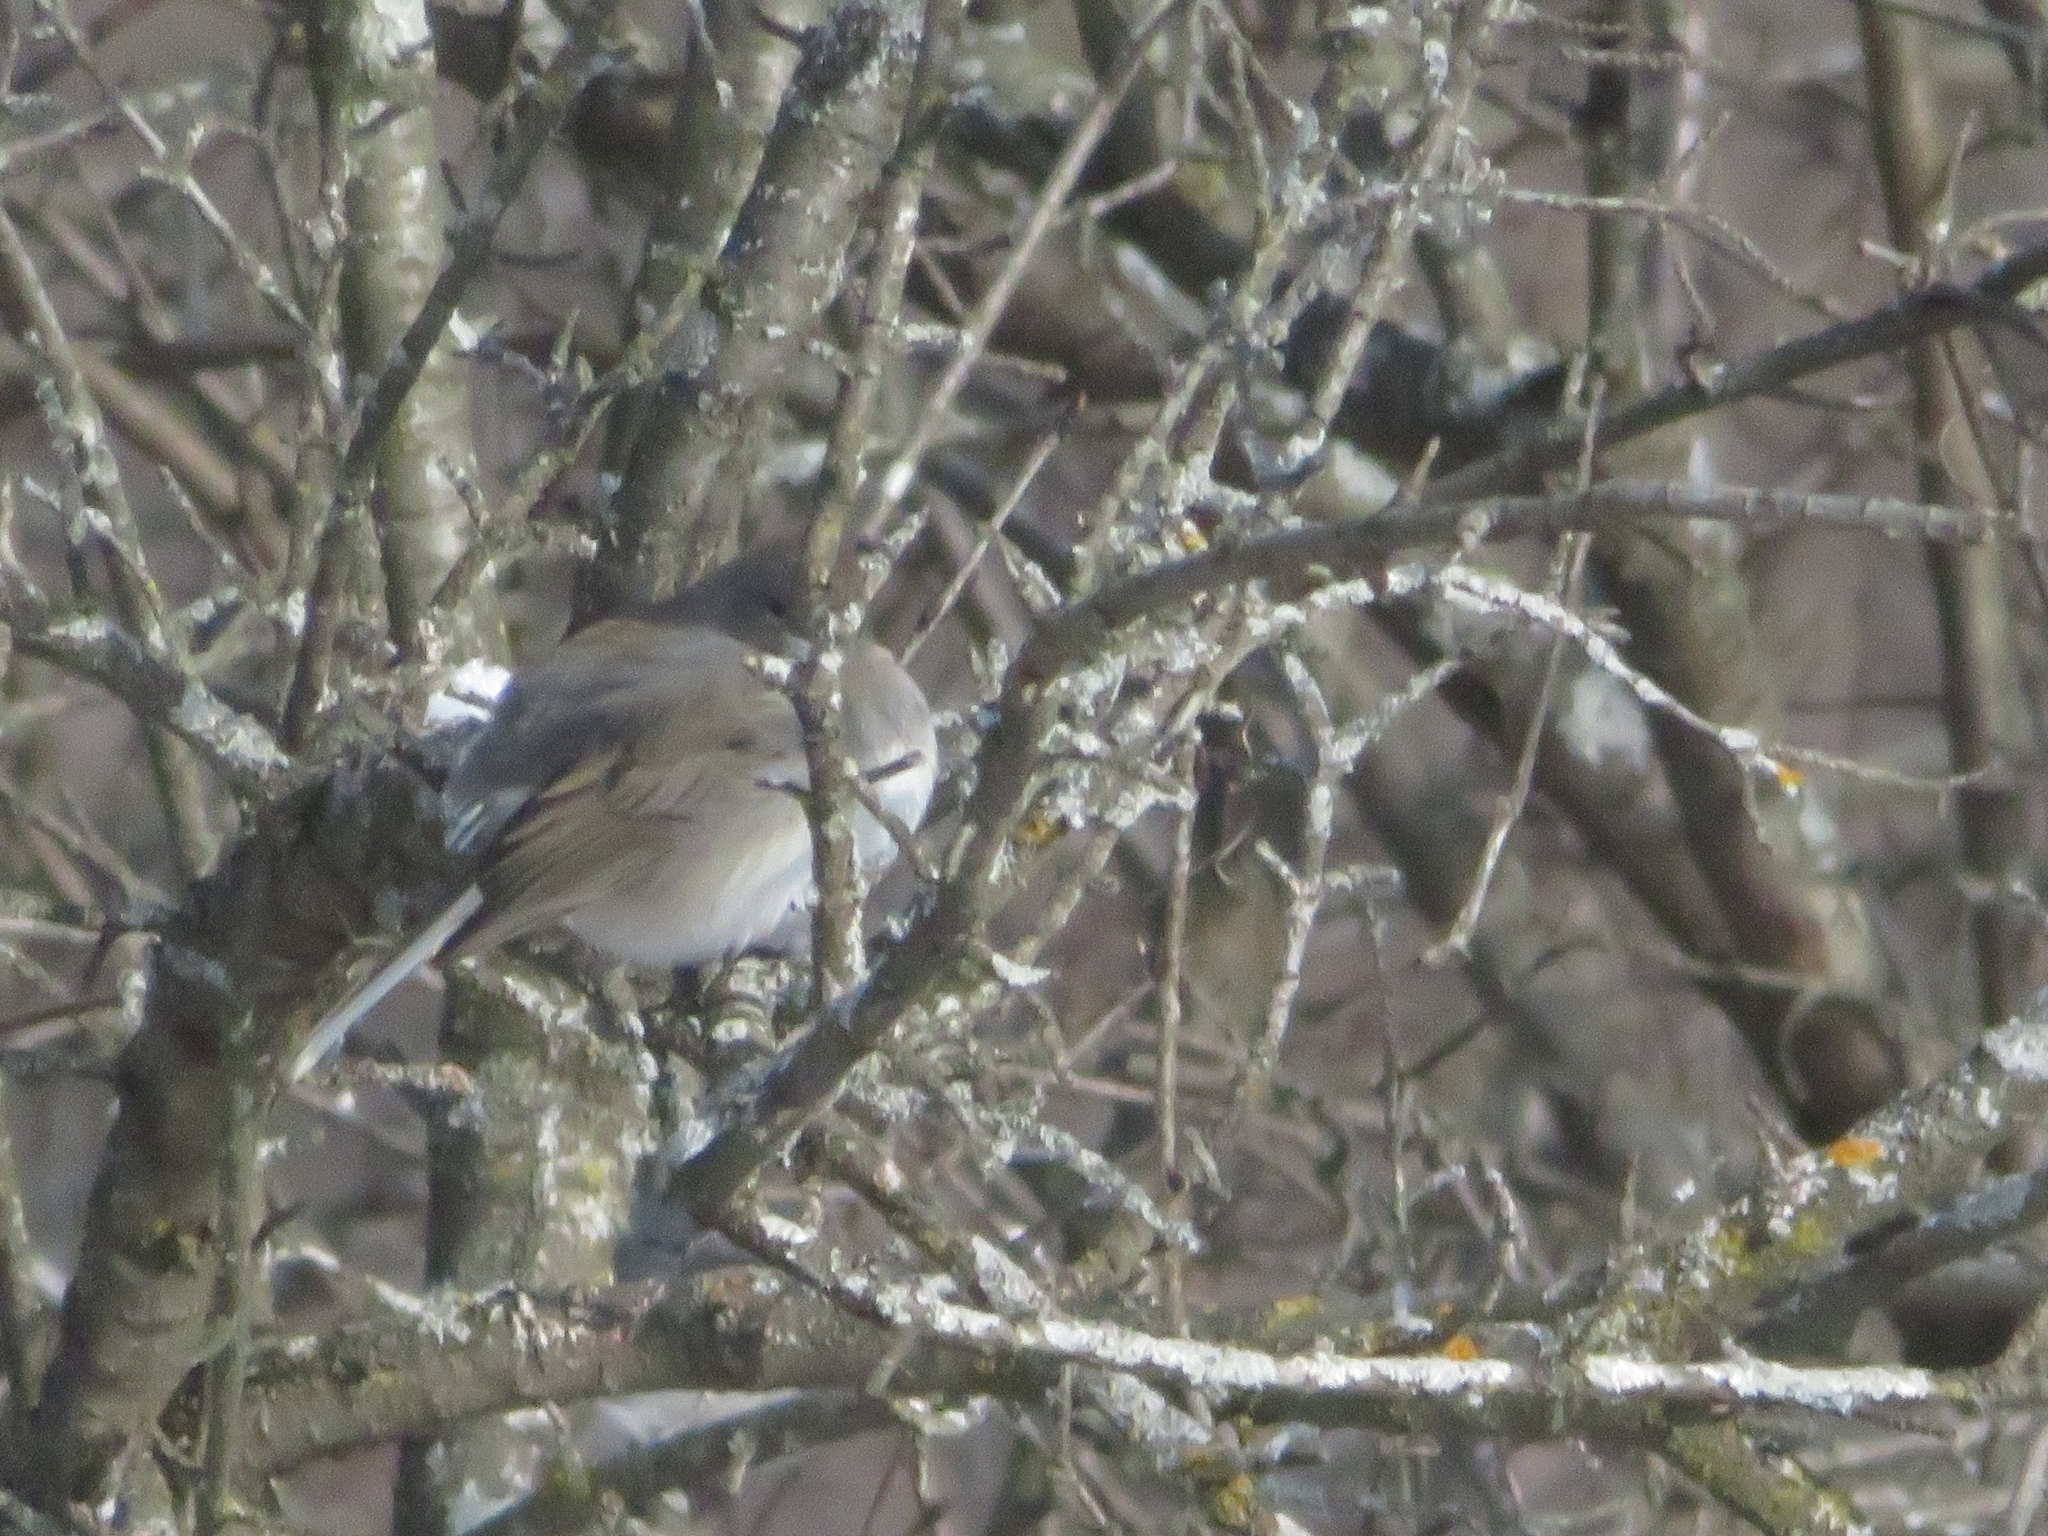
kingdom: Animalia
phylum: Chordata
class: Aves
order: Passeriformes
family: Passerellidae
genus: Junco
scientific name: Junco hyemalis
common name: Dark-eyed junco
